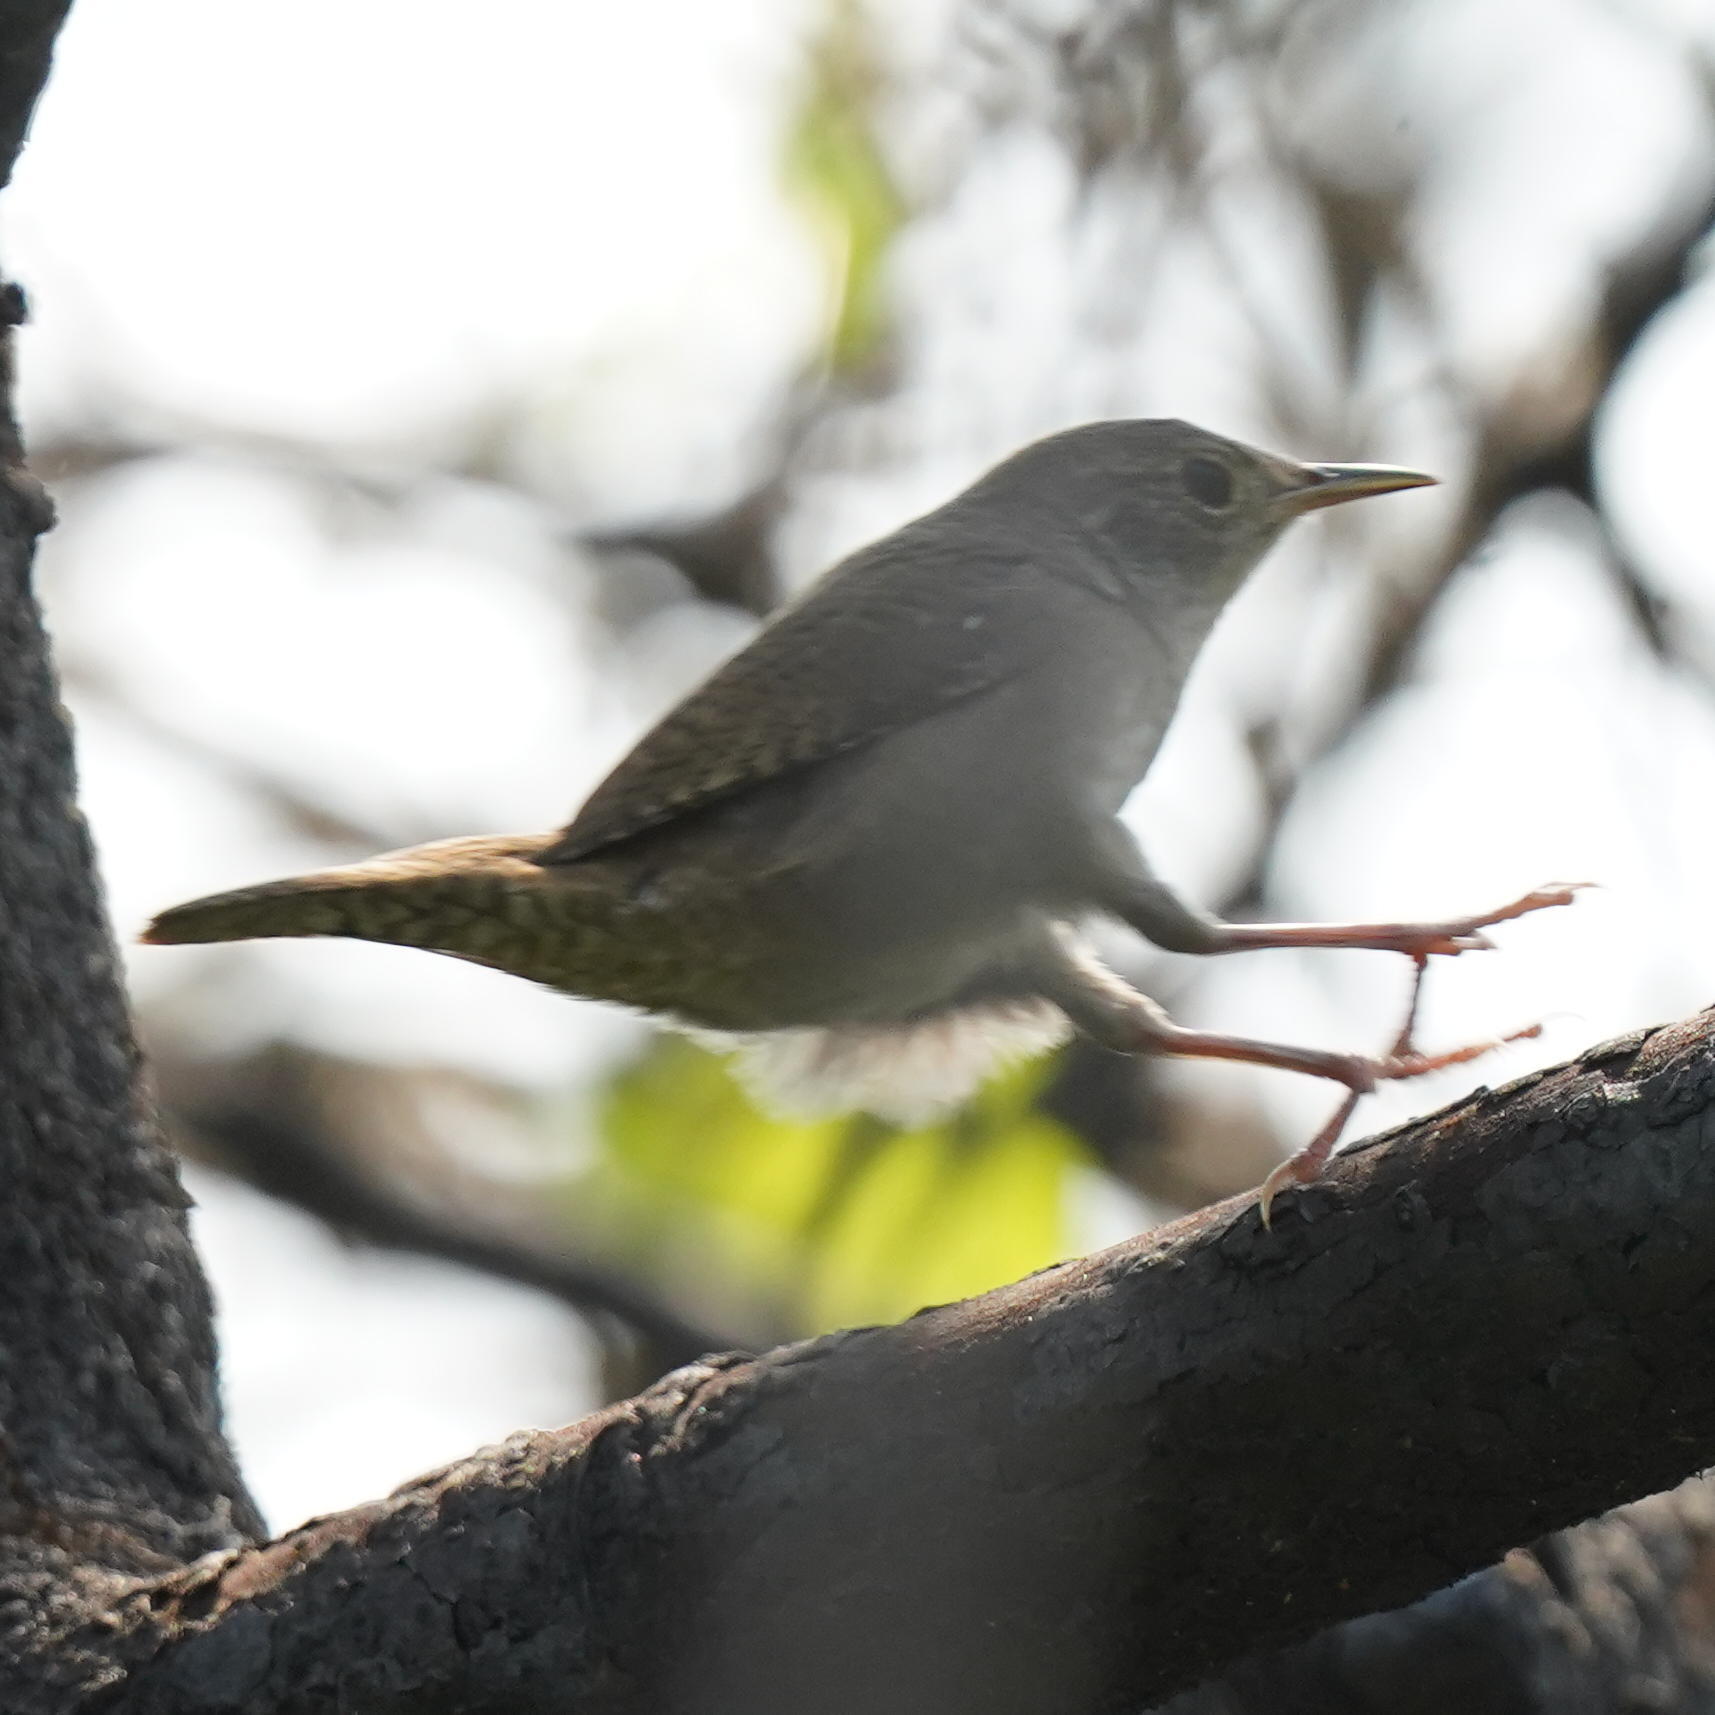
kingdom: Animalia
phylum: Chordata
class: Aves
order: Passeriformes
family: Troglodytidae
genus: Troglodytes
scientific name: Troglodytes aedon
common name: House wren
